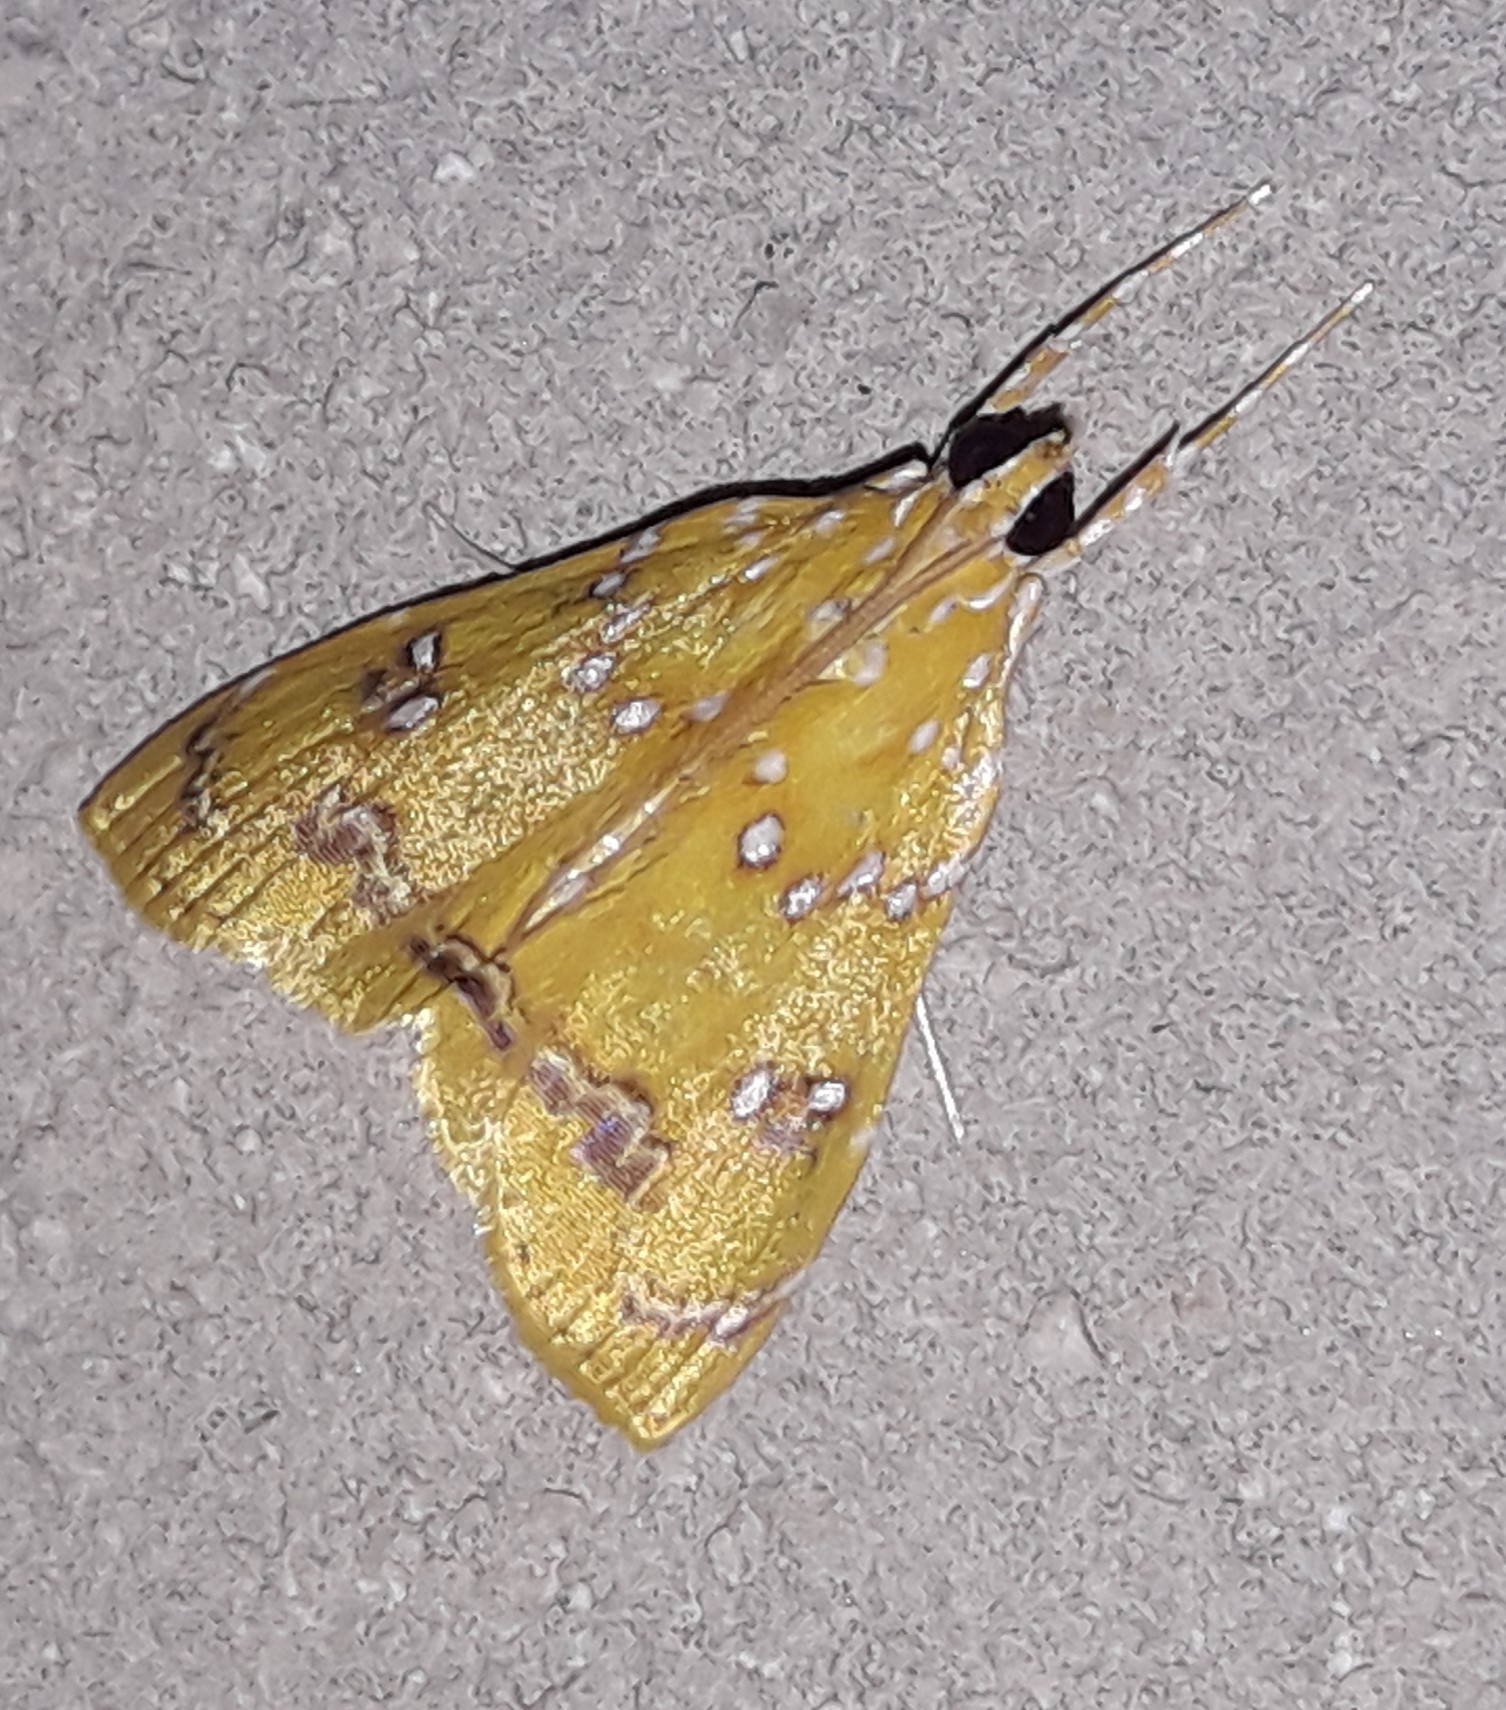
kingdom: Animalia
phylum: Arthropoda
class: Insecta
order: Lepidoptera
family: Crambidae
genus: Symphysa
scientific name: Symphysa
